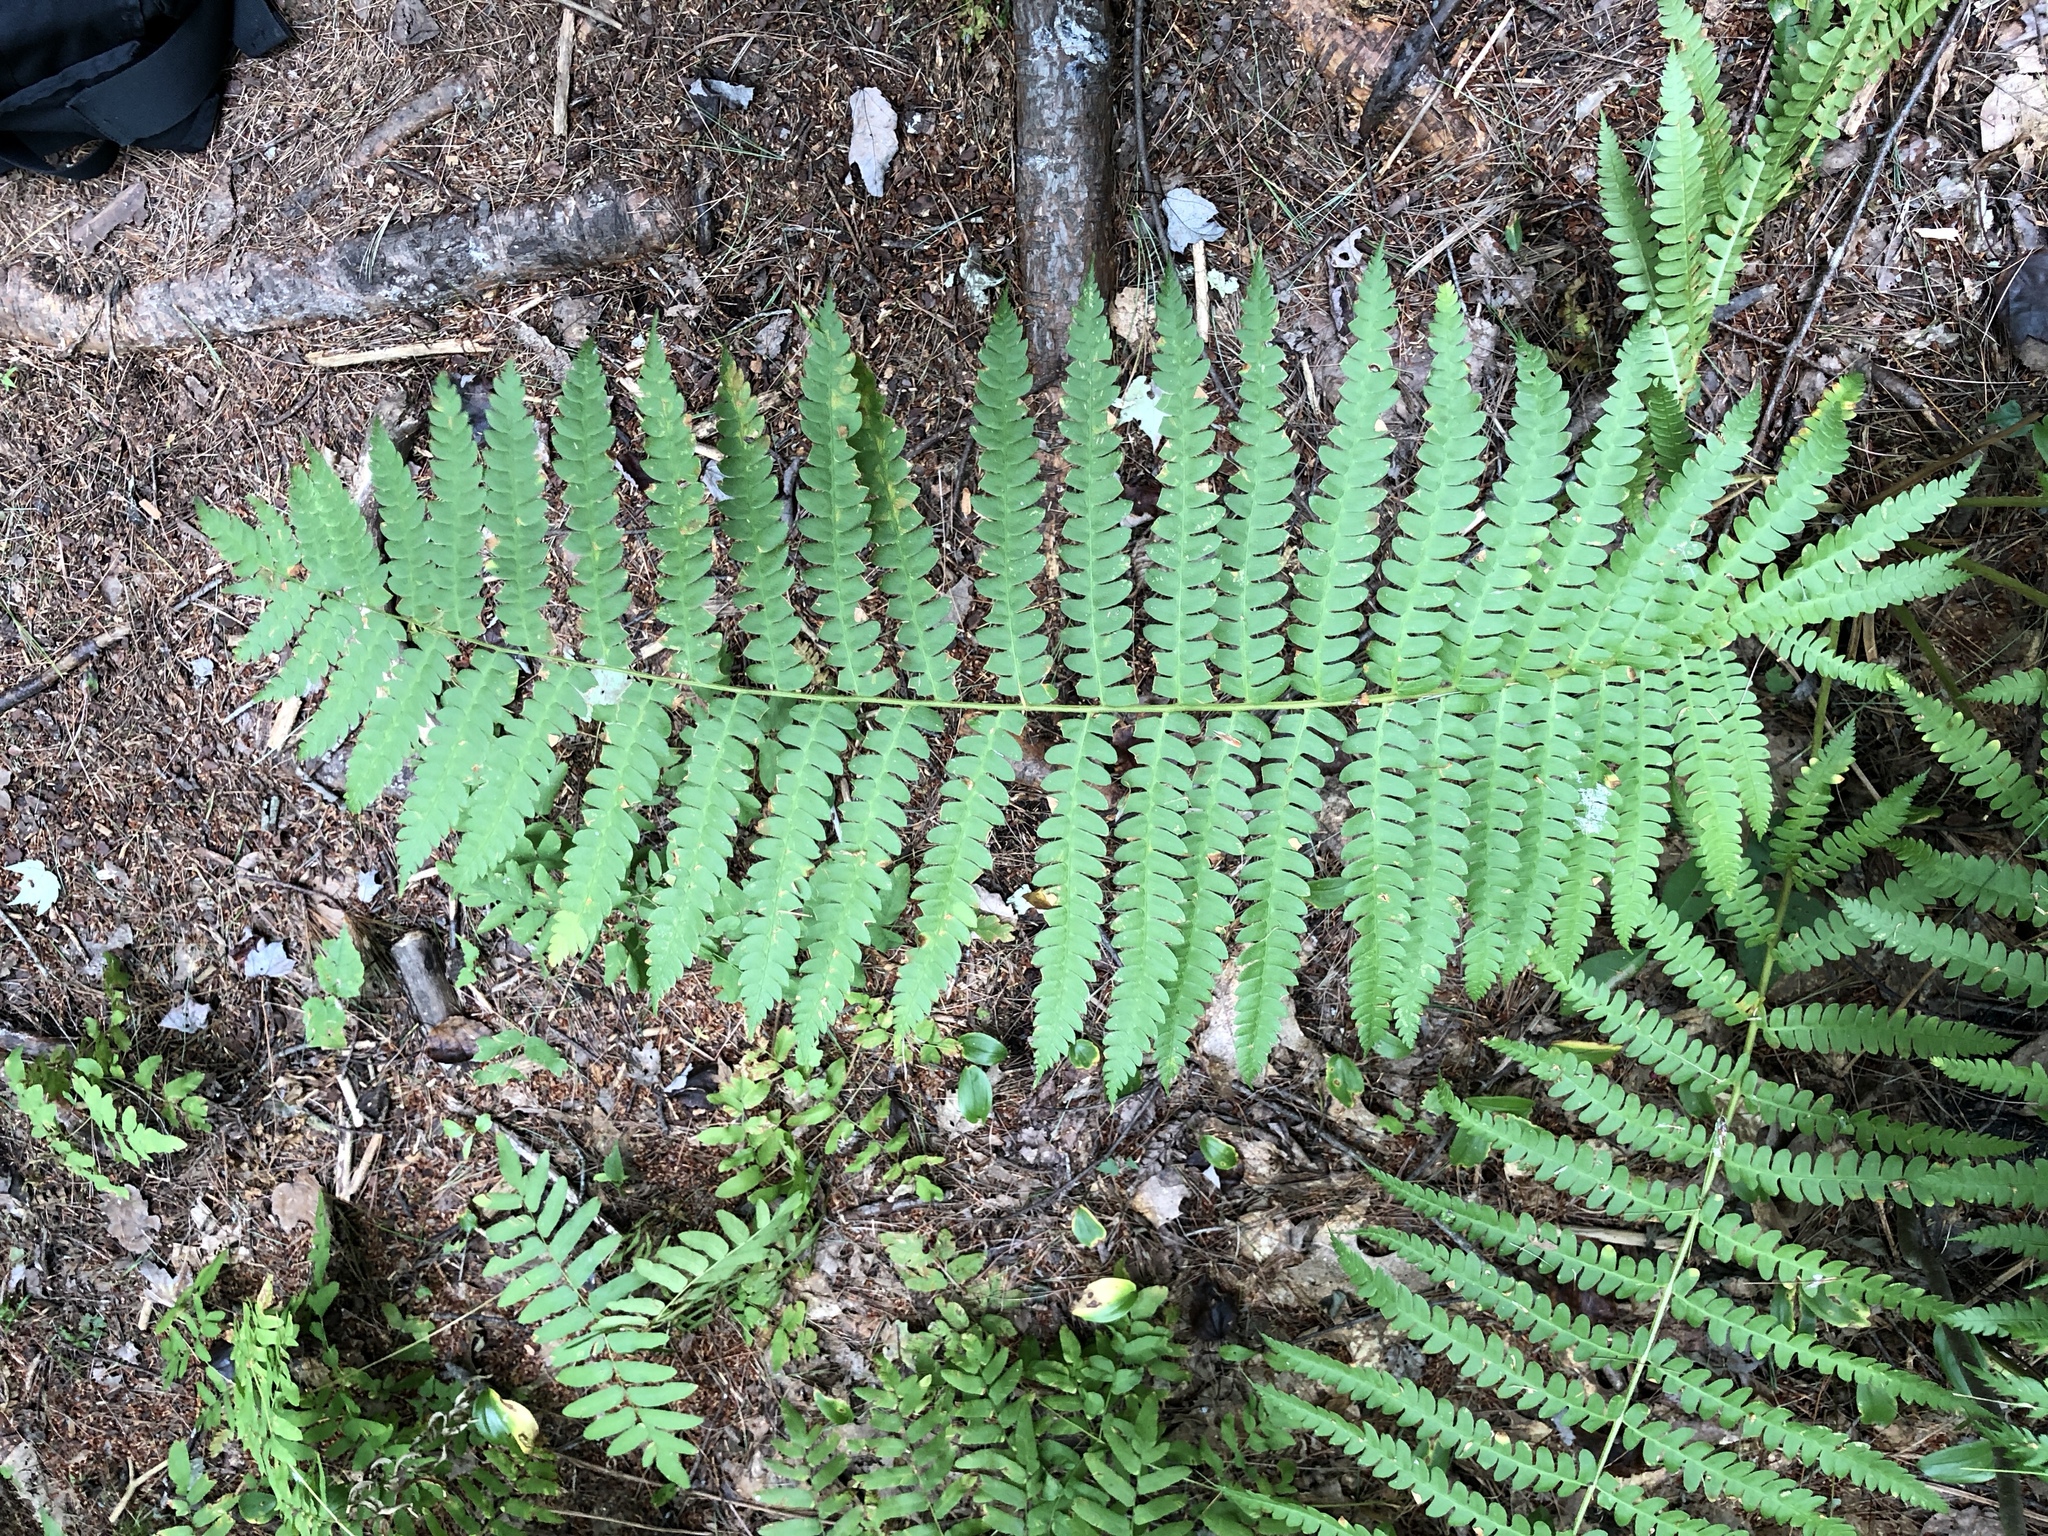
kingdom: Plantae
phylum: Tracheophyta
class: Polypodiopsida
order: Osmundales
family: Osmundaceae
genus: Osmundastrum
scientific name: Osmundastrum cinnamomeum
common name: Cinnamon fern
